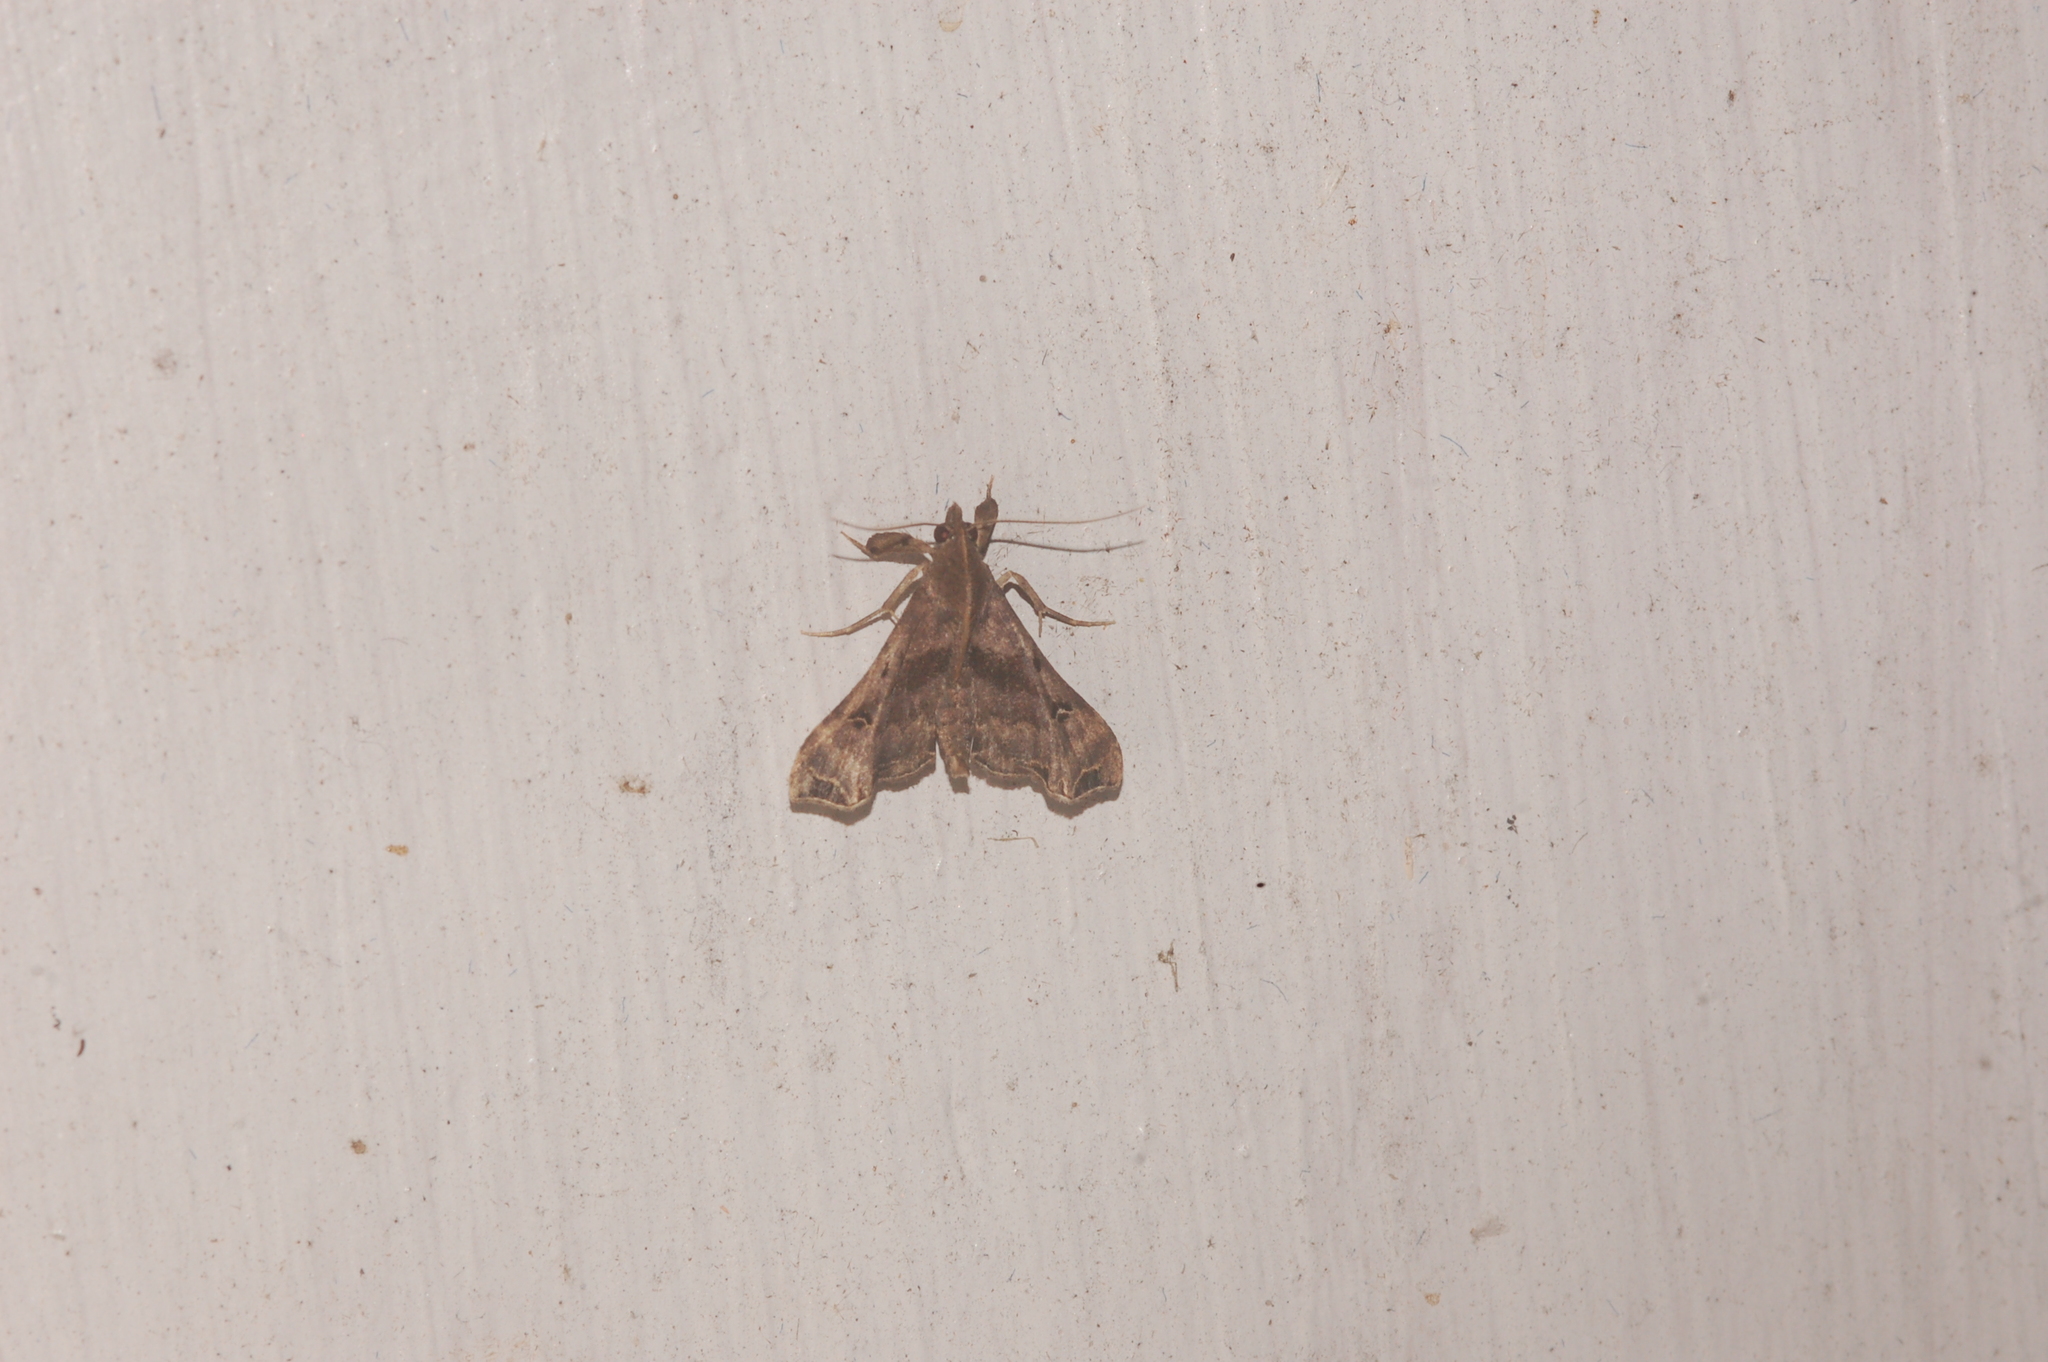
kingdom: Animalia
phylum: Arthropoda
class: Insecta
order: Lepidoptera
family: Erebidae
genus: Palthis
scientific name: Palthis asopialis
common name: Faint-spotted palthis moth
